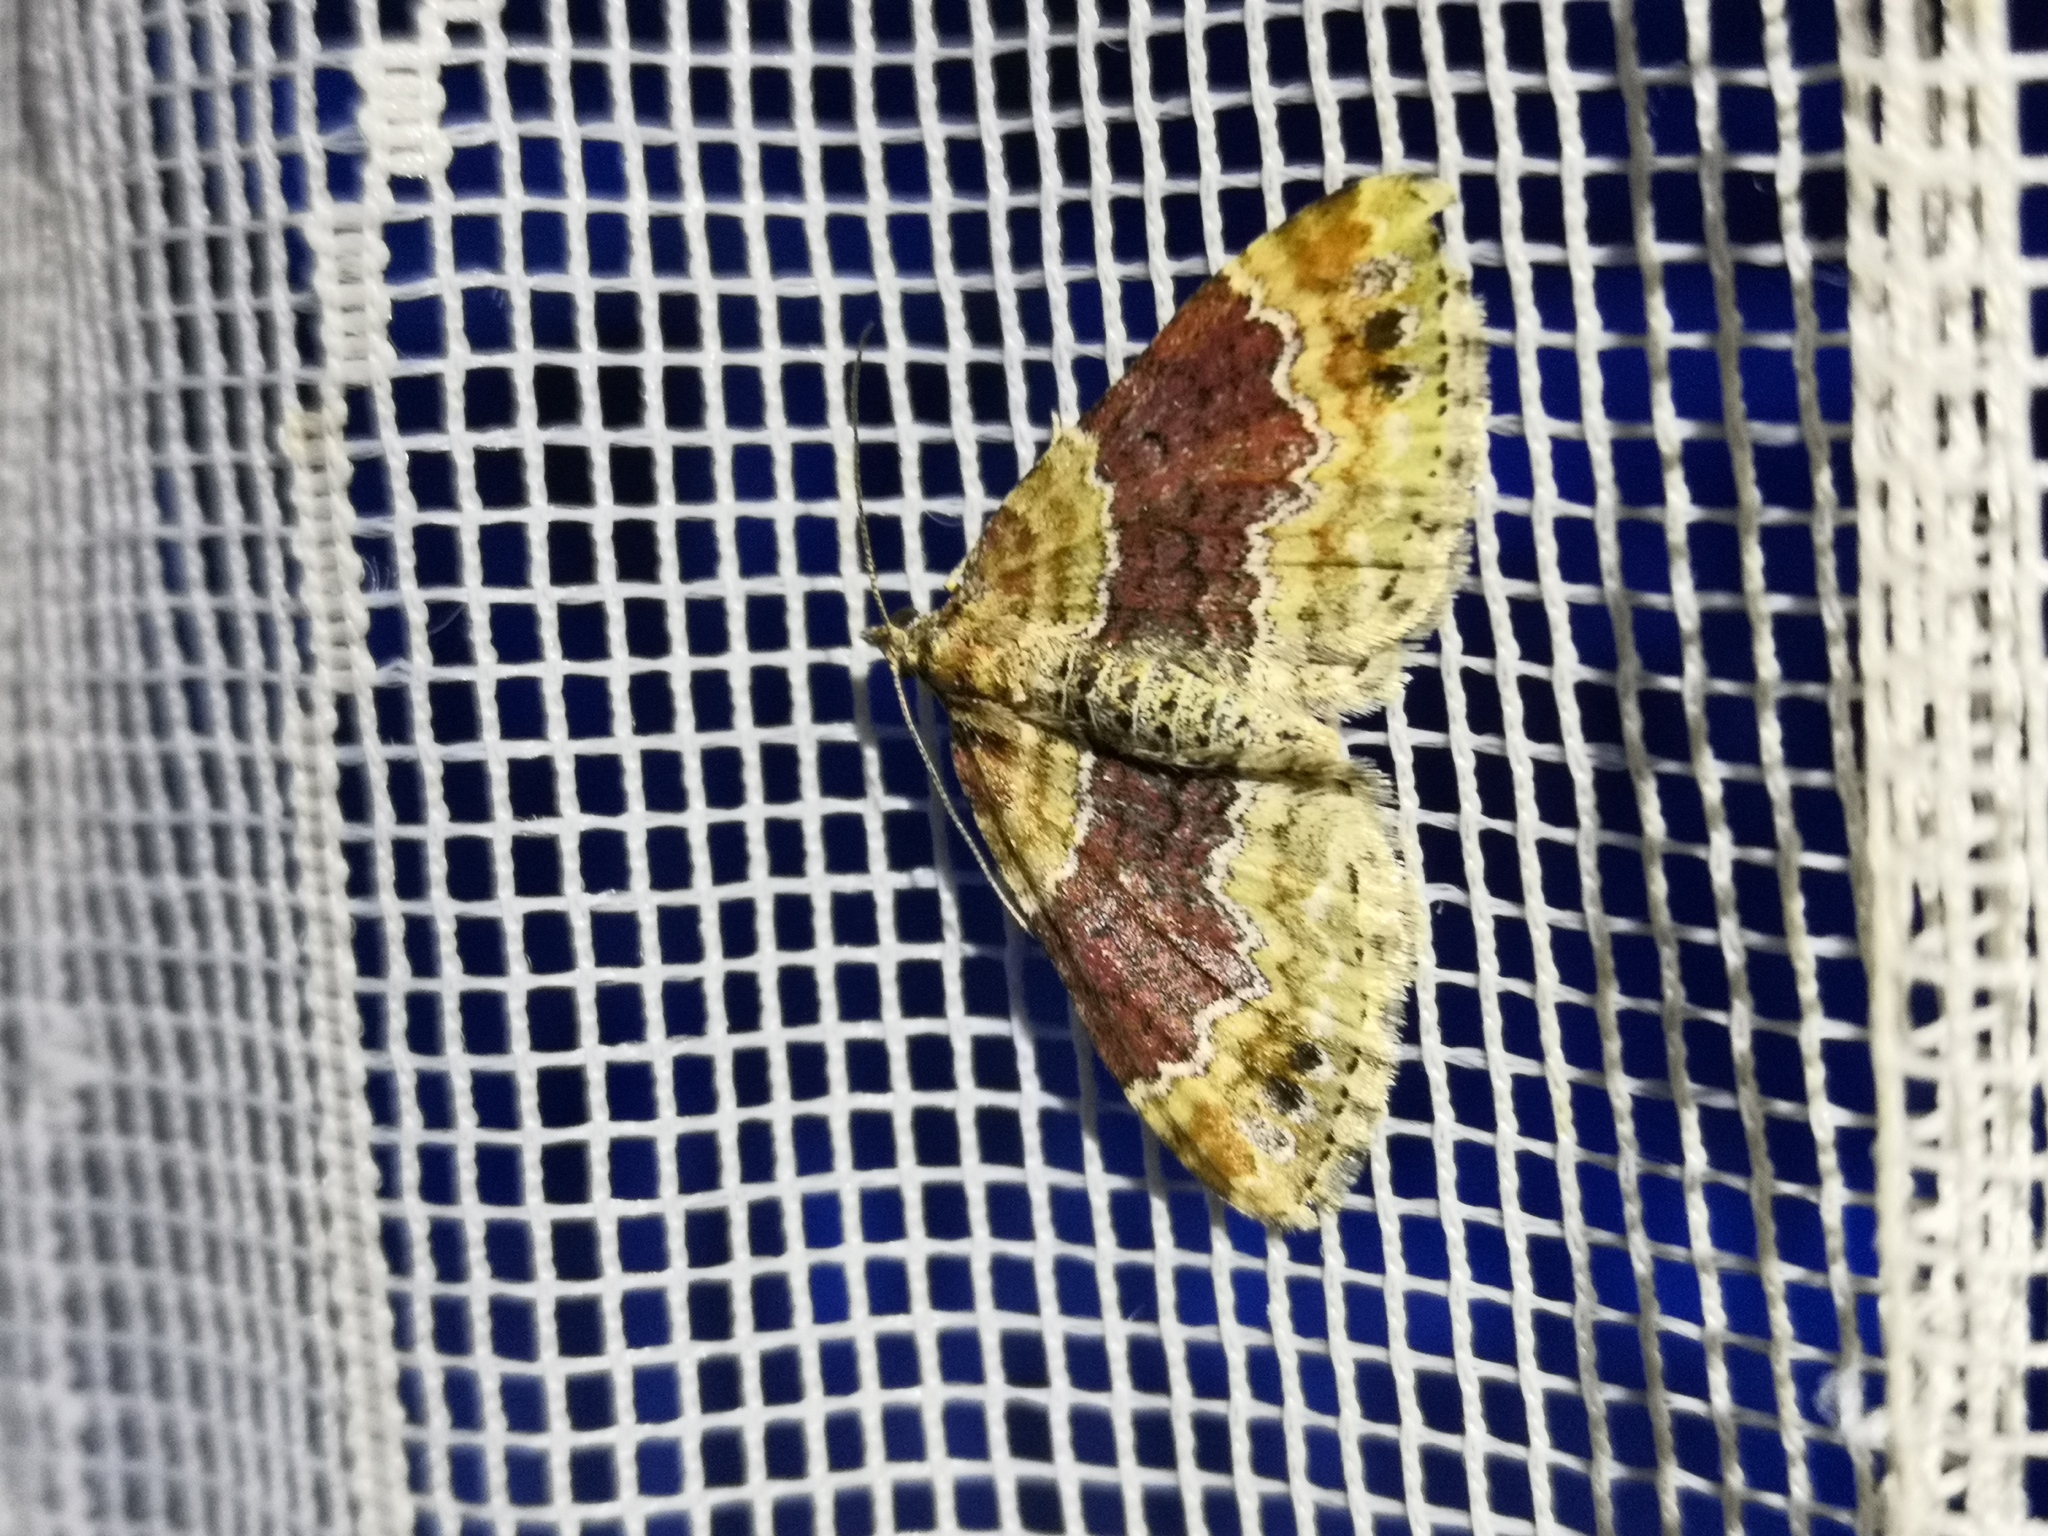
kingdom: Animalia
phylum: Arthropoda
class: Insecta
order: Lepidoptera
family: Geometridae
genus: Xanthorhoe
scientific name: Xanthorhoe spadicearia
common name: Red twin-spot carpet
